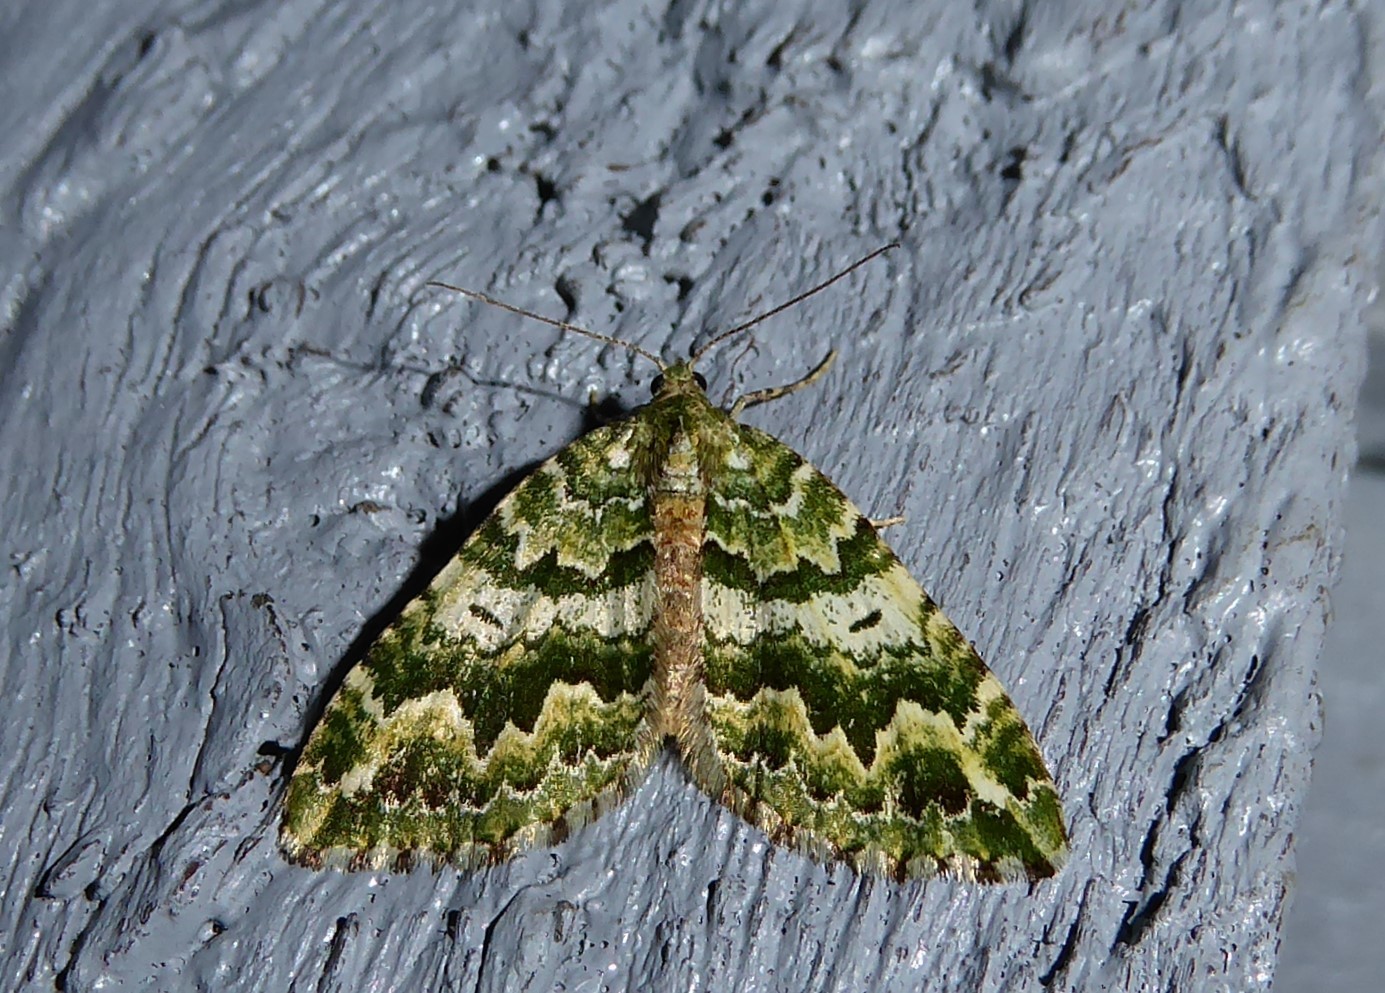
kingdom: Animalia
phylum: Arthropoda
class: Insecta
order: Lepidoptera
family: Geometridae
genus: Asaphodes
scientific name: Asaphodes beata
